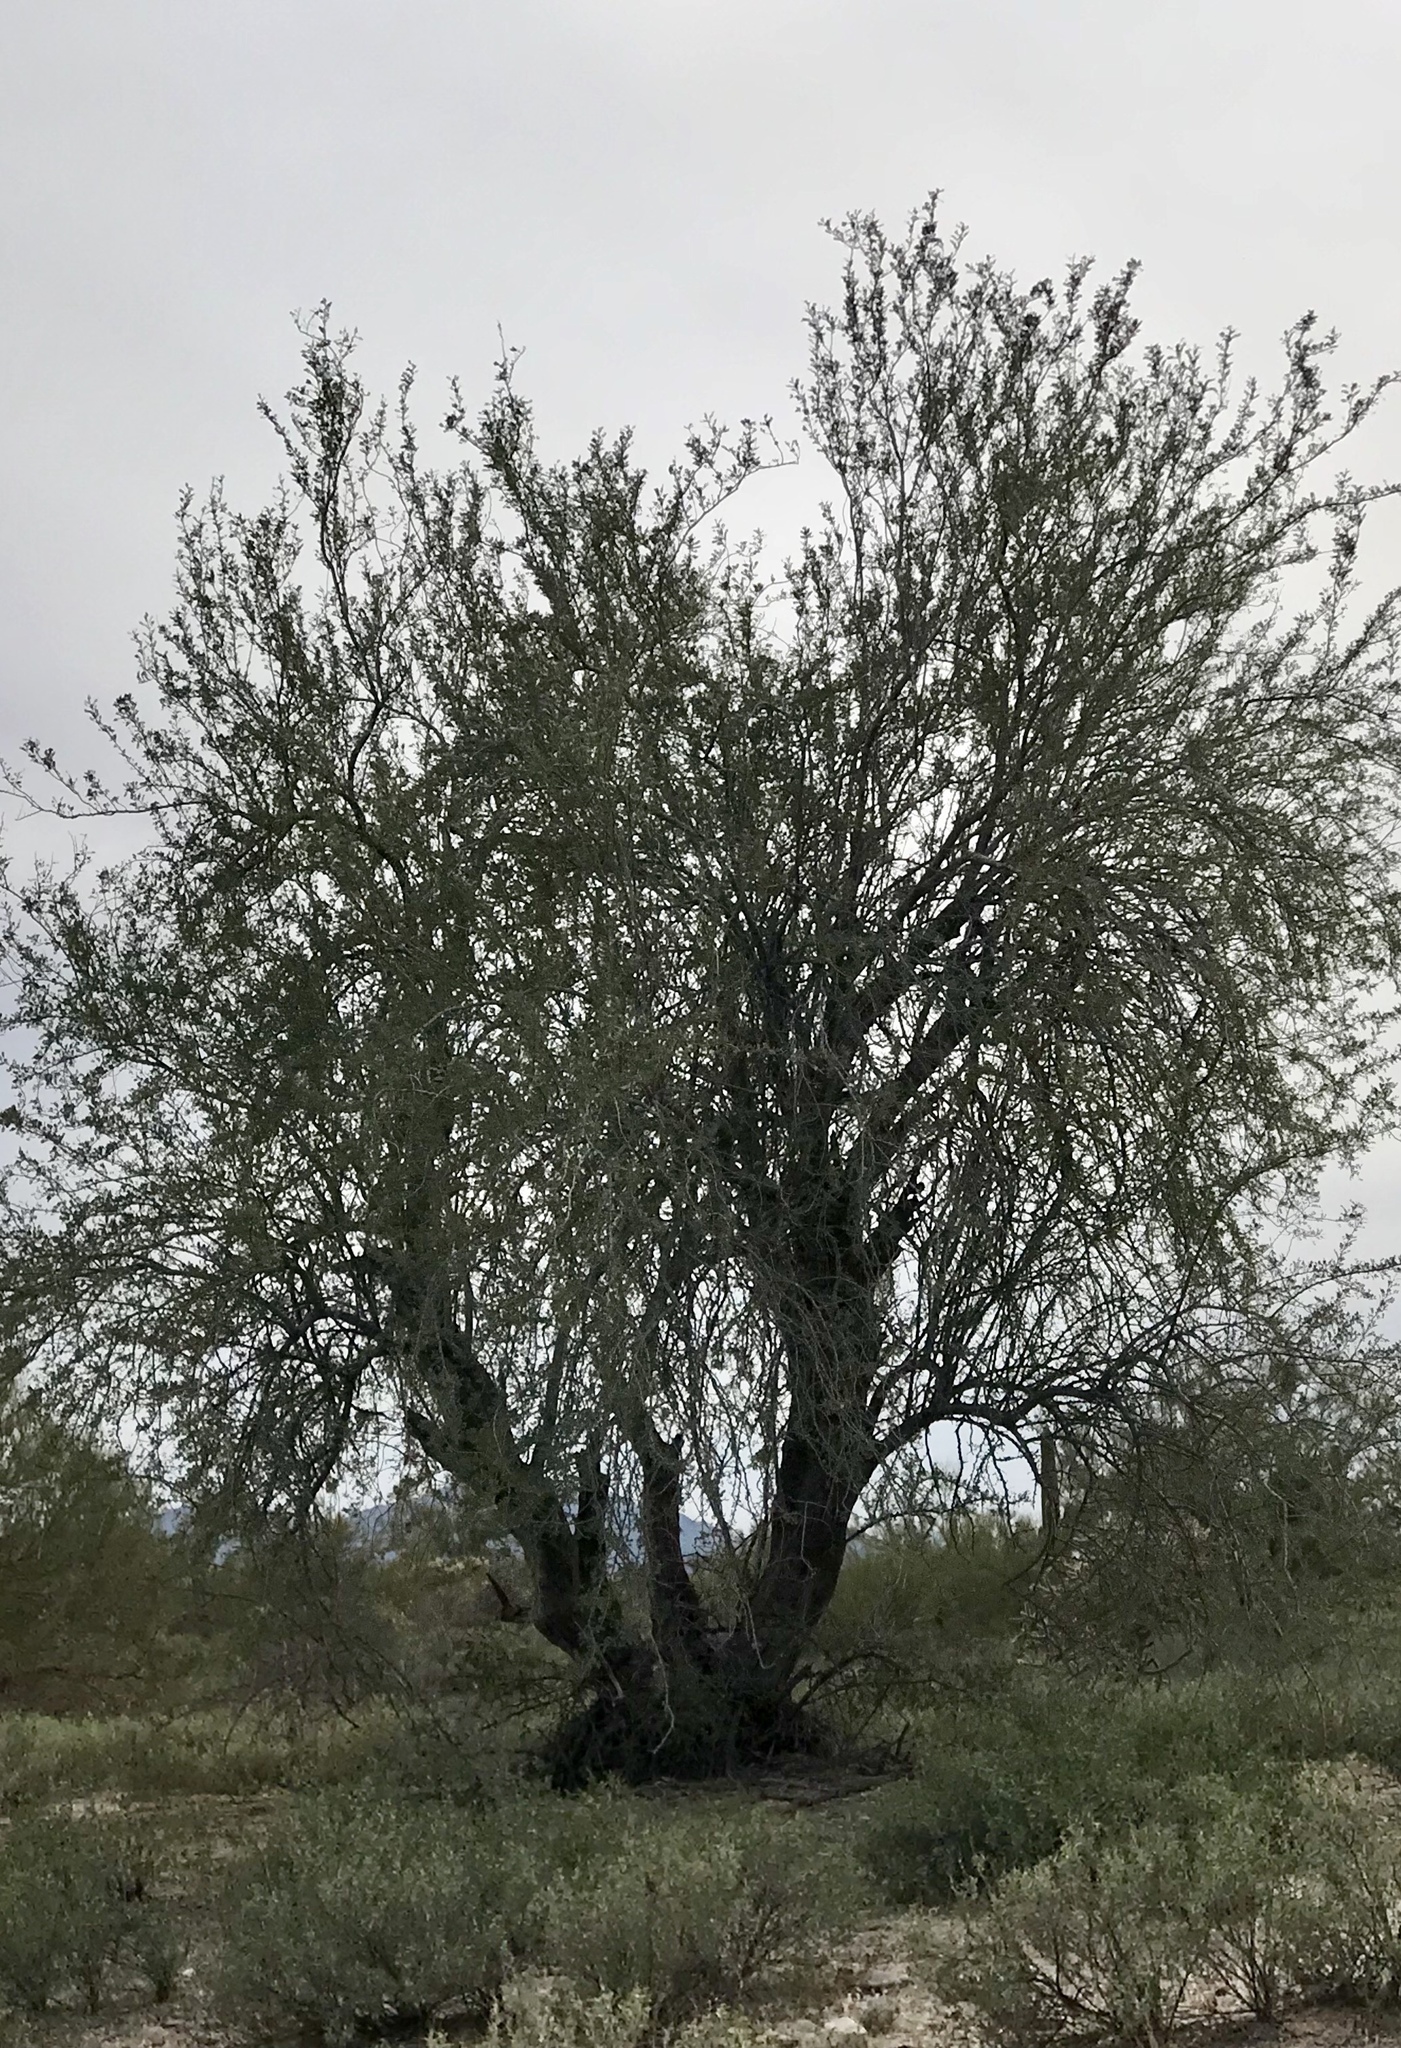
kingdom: Plantae
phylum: Tracheophyta
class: Magnoliopsida
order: Fabales
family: Fabaceae
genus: Olneya
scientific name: Olneya tesota
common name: Desert ironwood
